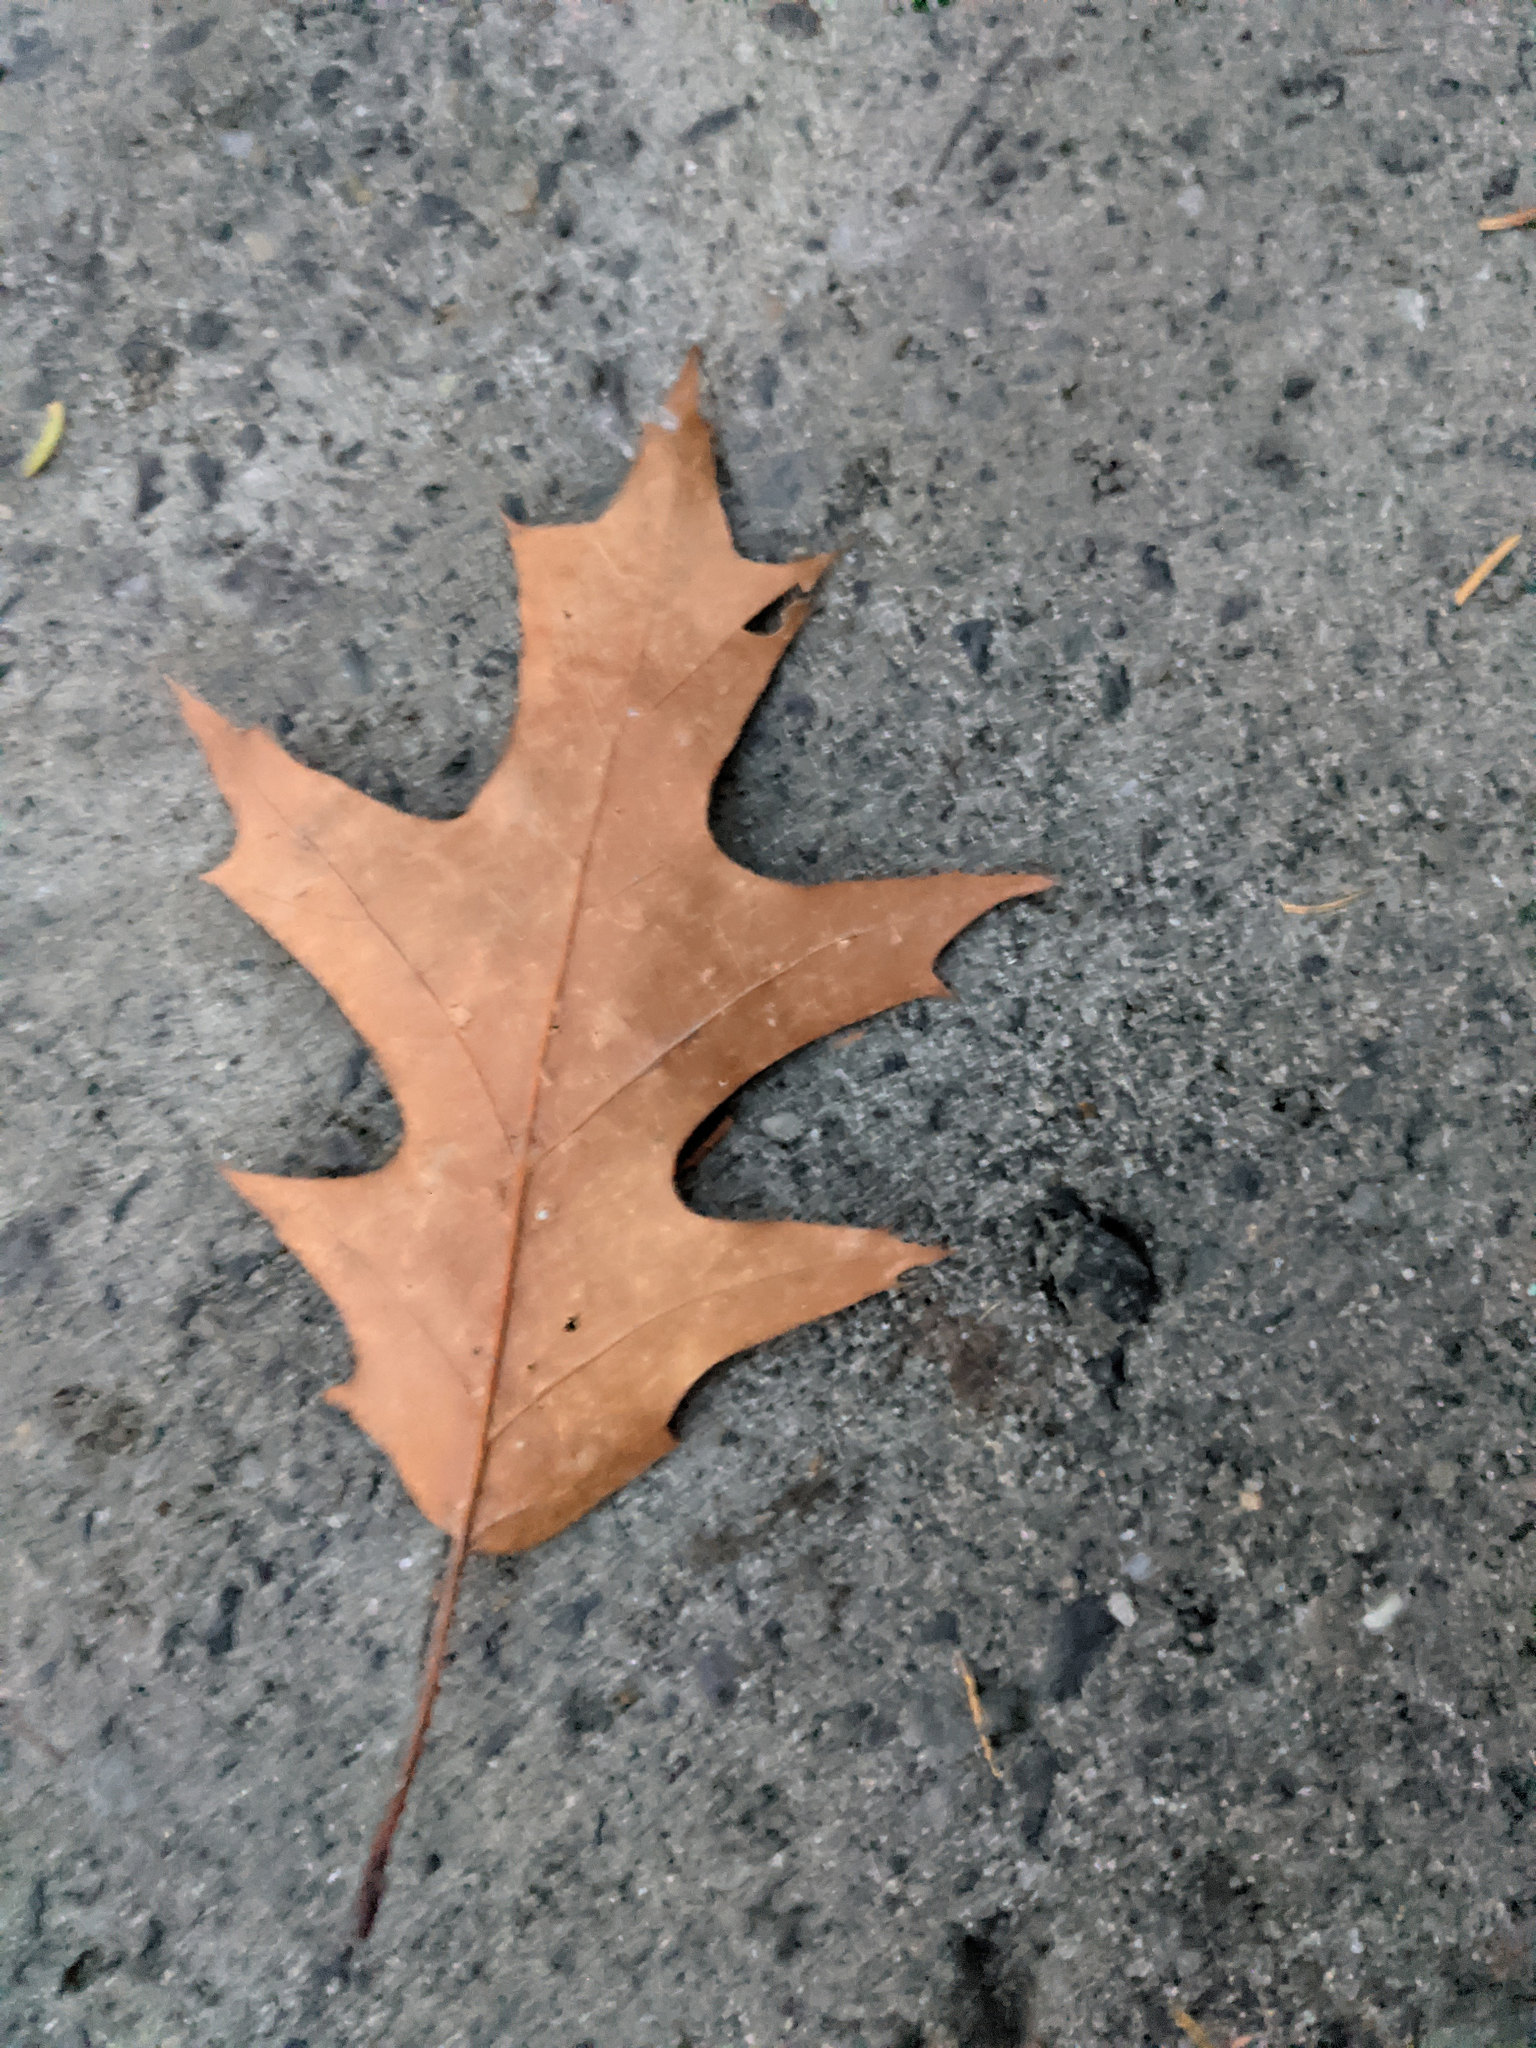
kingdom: Plantae
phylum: Tracheophyta
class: Magnoliopsida
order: Fagales
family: Fagaceae
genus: Quercus
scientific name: Quercus rubra
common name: Red oak
